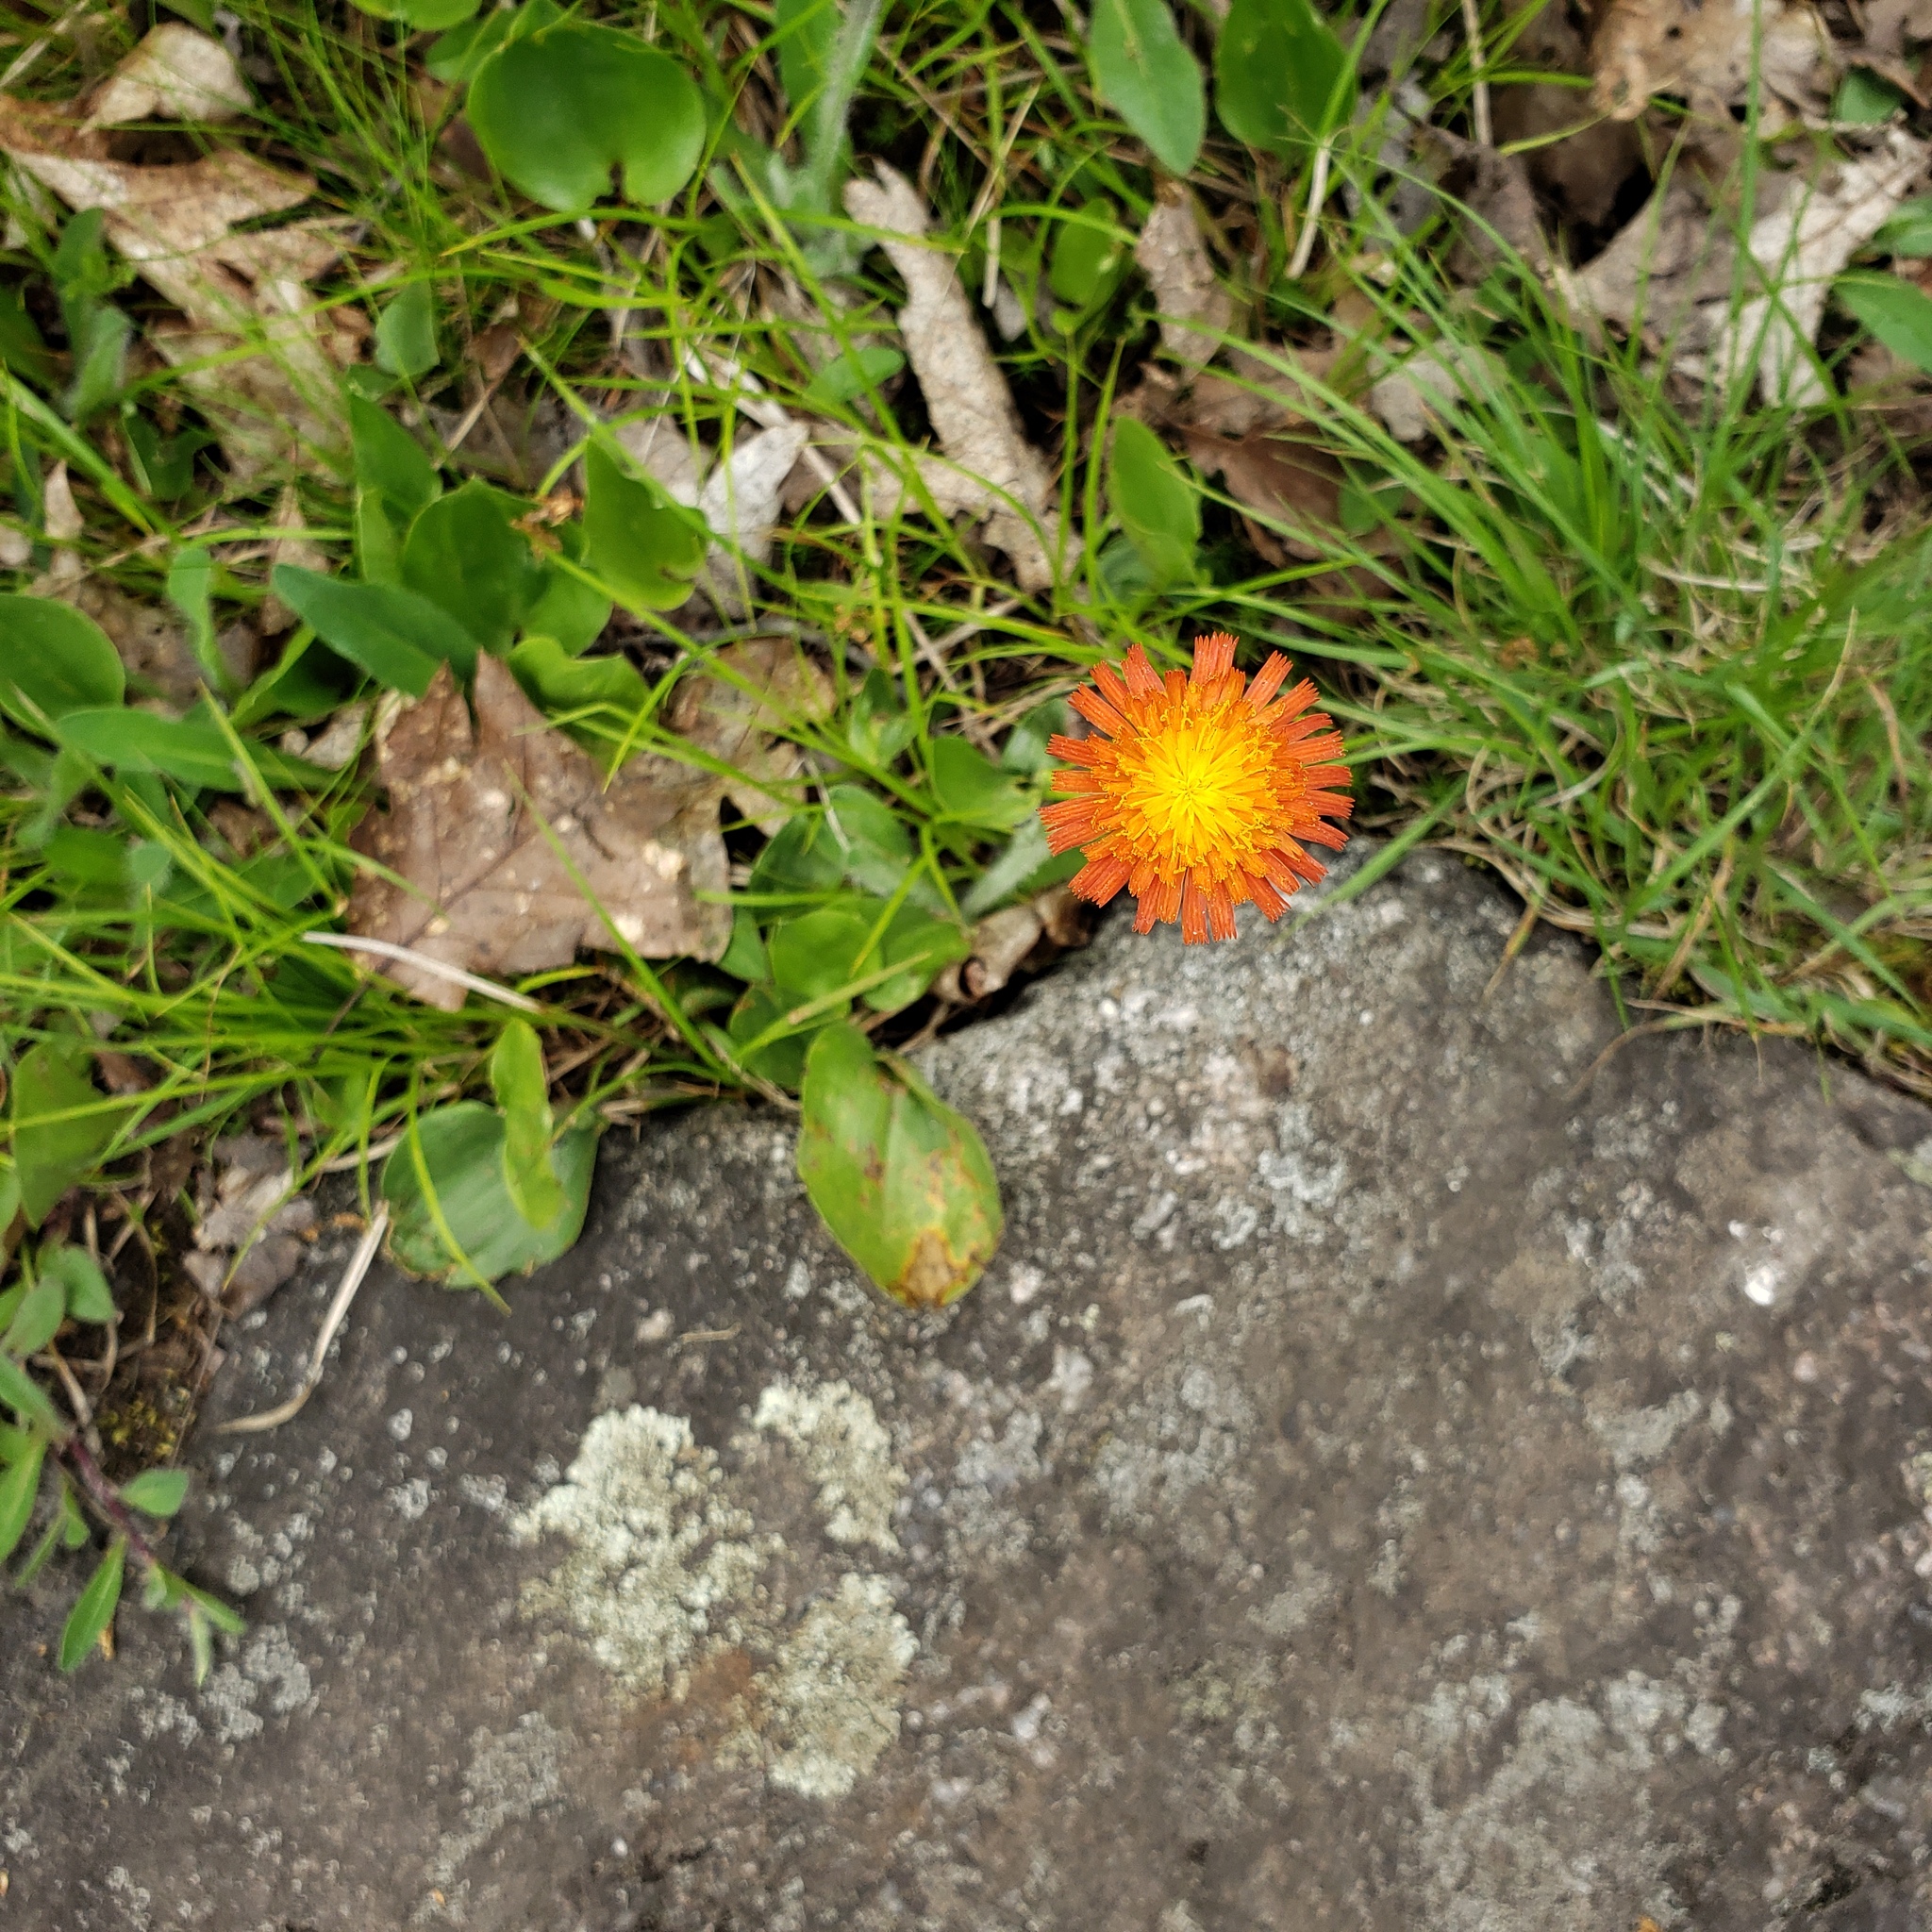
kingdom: Plantae
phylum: Tracheophyta
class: Magnoliopsida
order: Asterales
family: Asteraceae
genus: Pilosella
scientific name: Pilosella aurantiaca
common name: Fox-and-cubs
